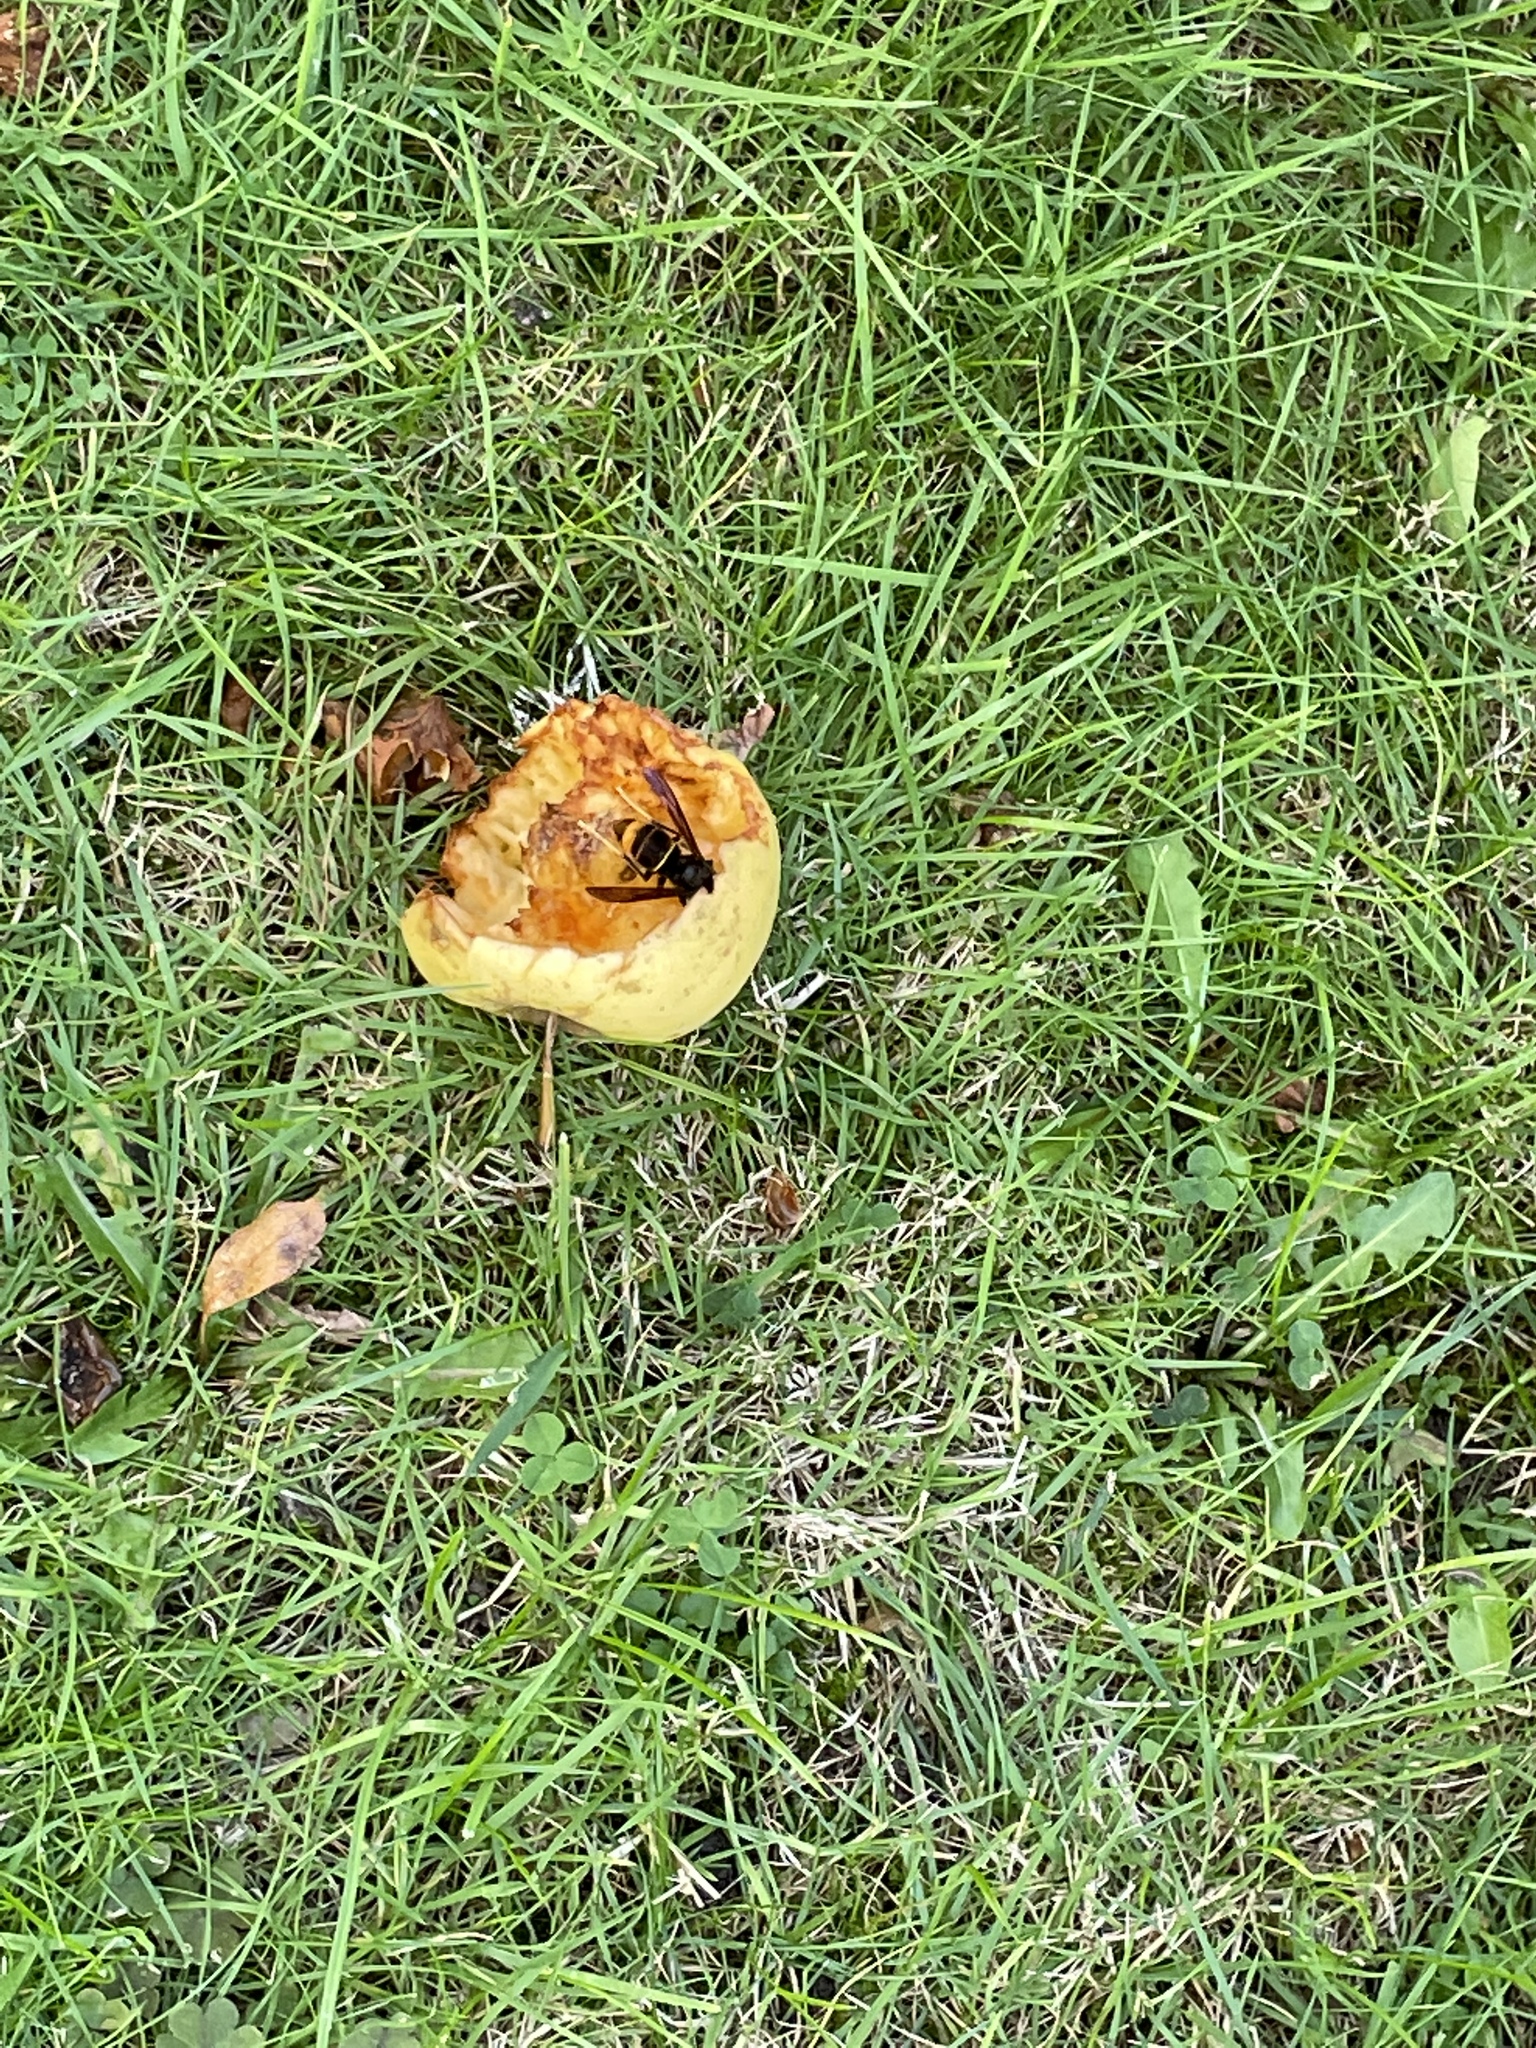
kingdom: Animalia
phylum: Arthropoda
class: Insecta
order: Hymenoptera
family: Vespidae
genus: Vespa
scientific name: Vespa velutina
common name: Asian hornet
